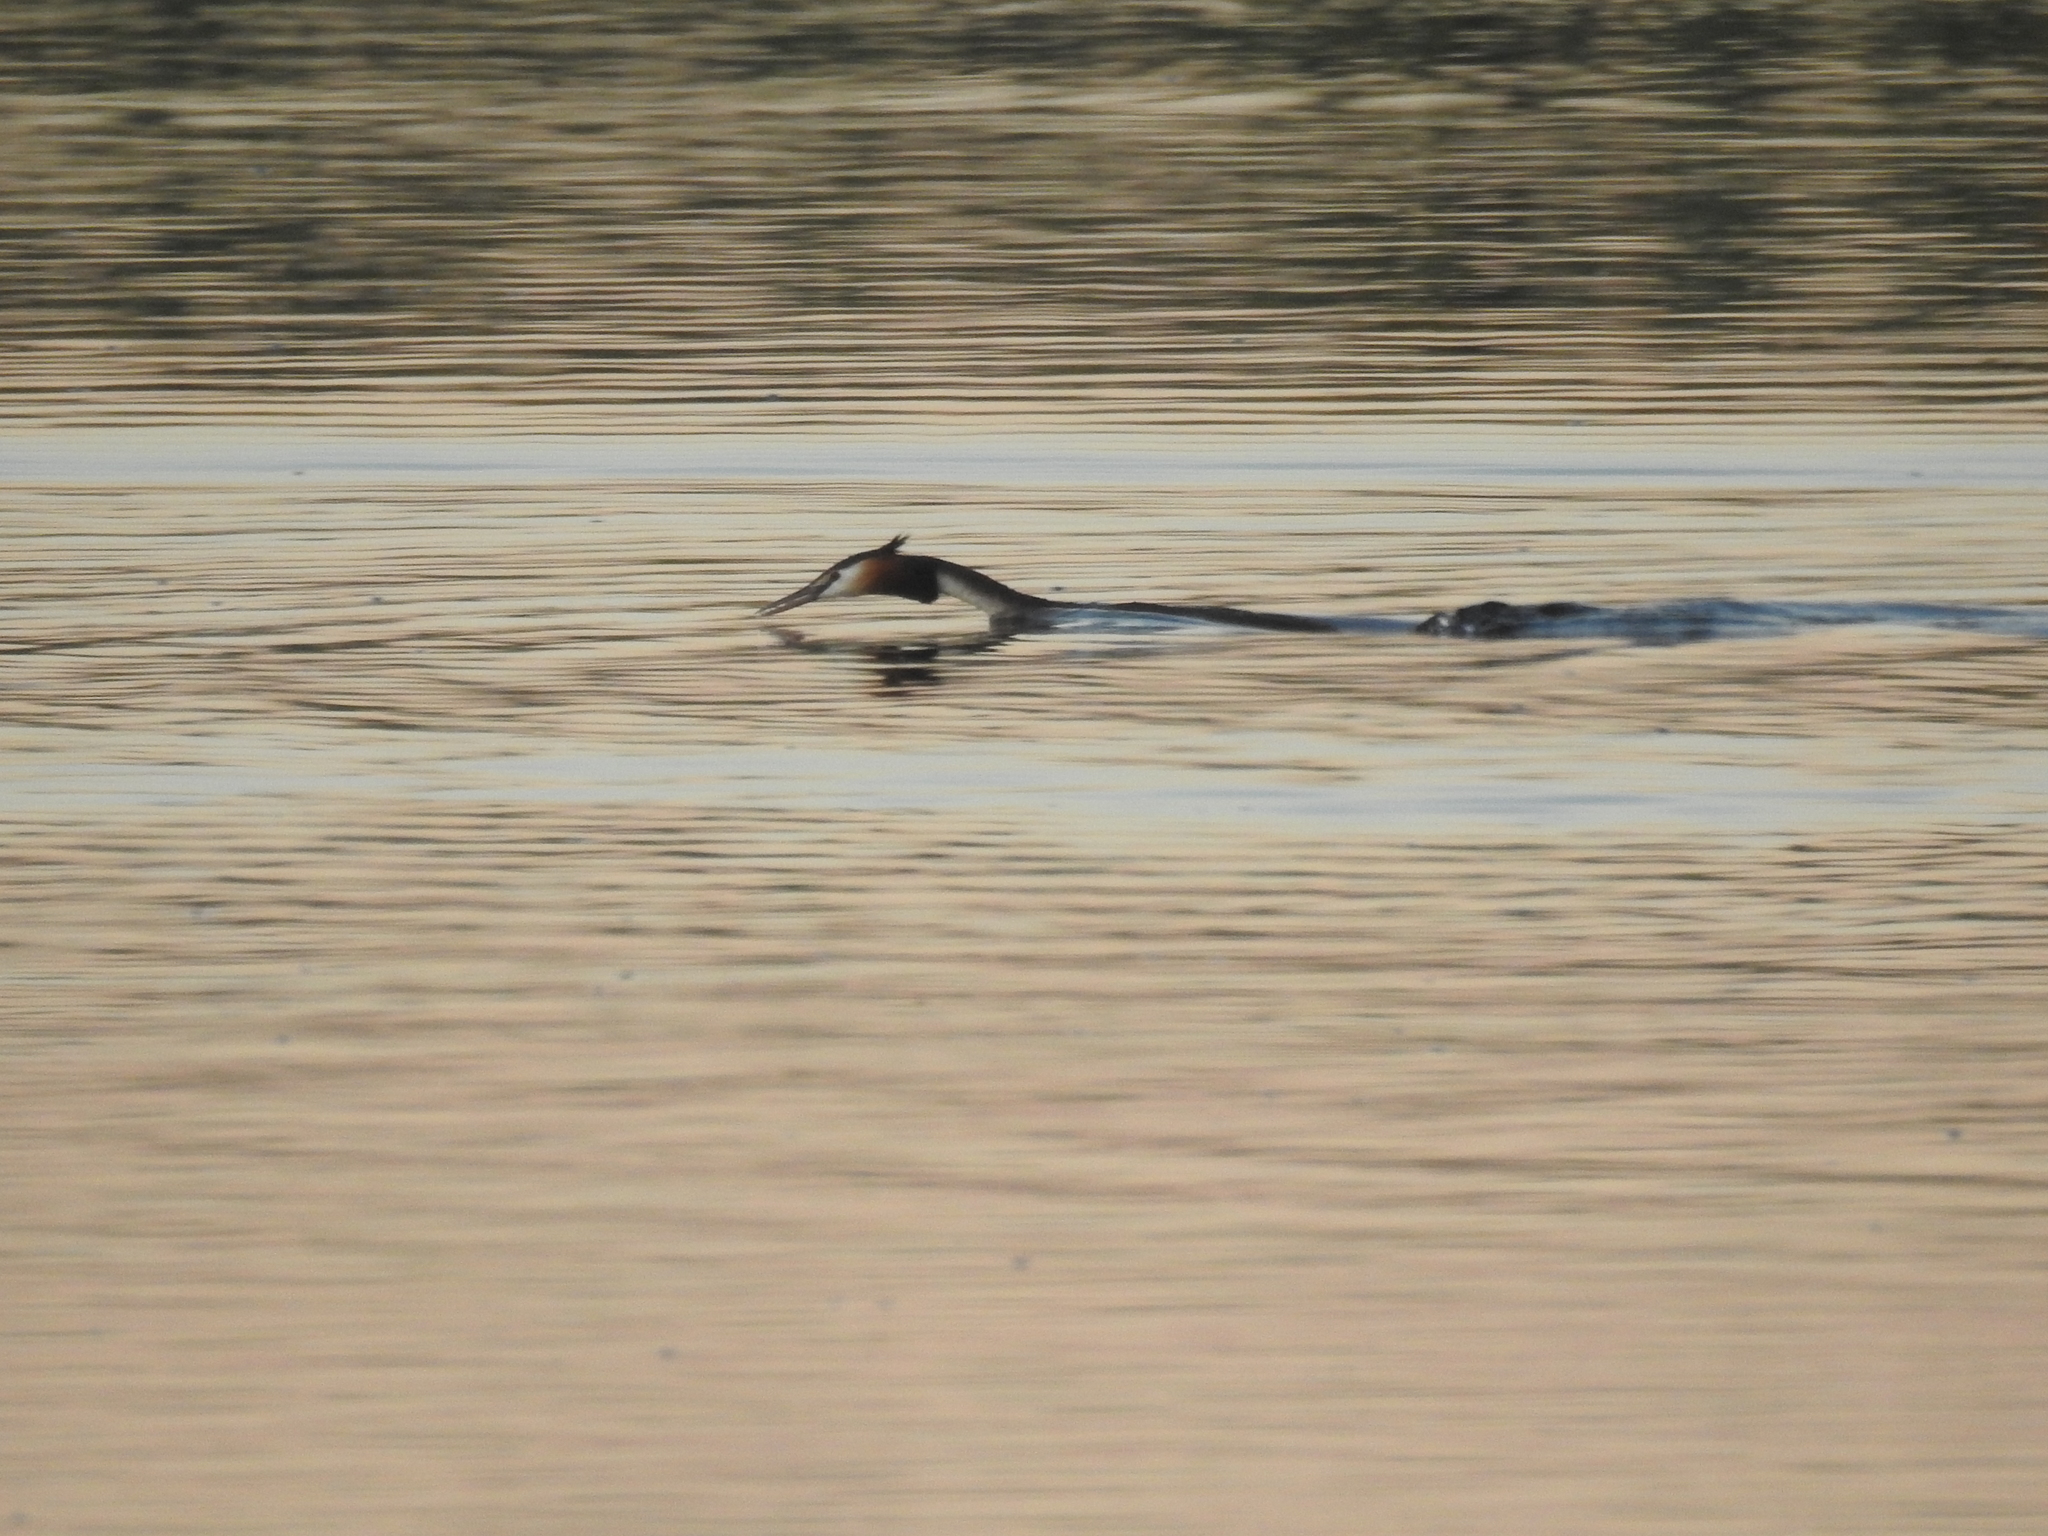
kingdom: Animalia
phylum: Chordata
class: Aves
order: Podicipediformes
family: Podicipedidae
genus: Podiceps
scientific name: Podiceps cristatus
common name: Great crested grebe
